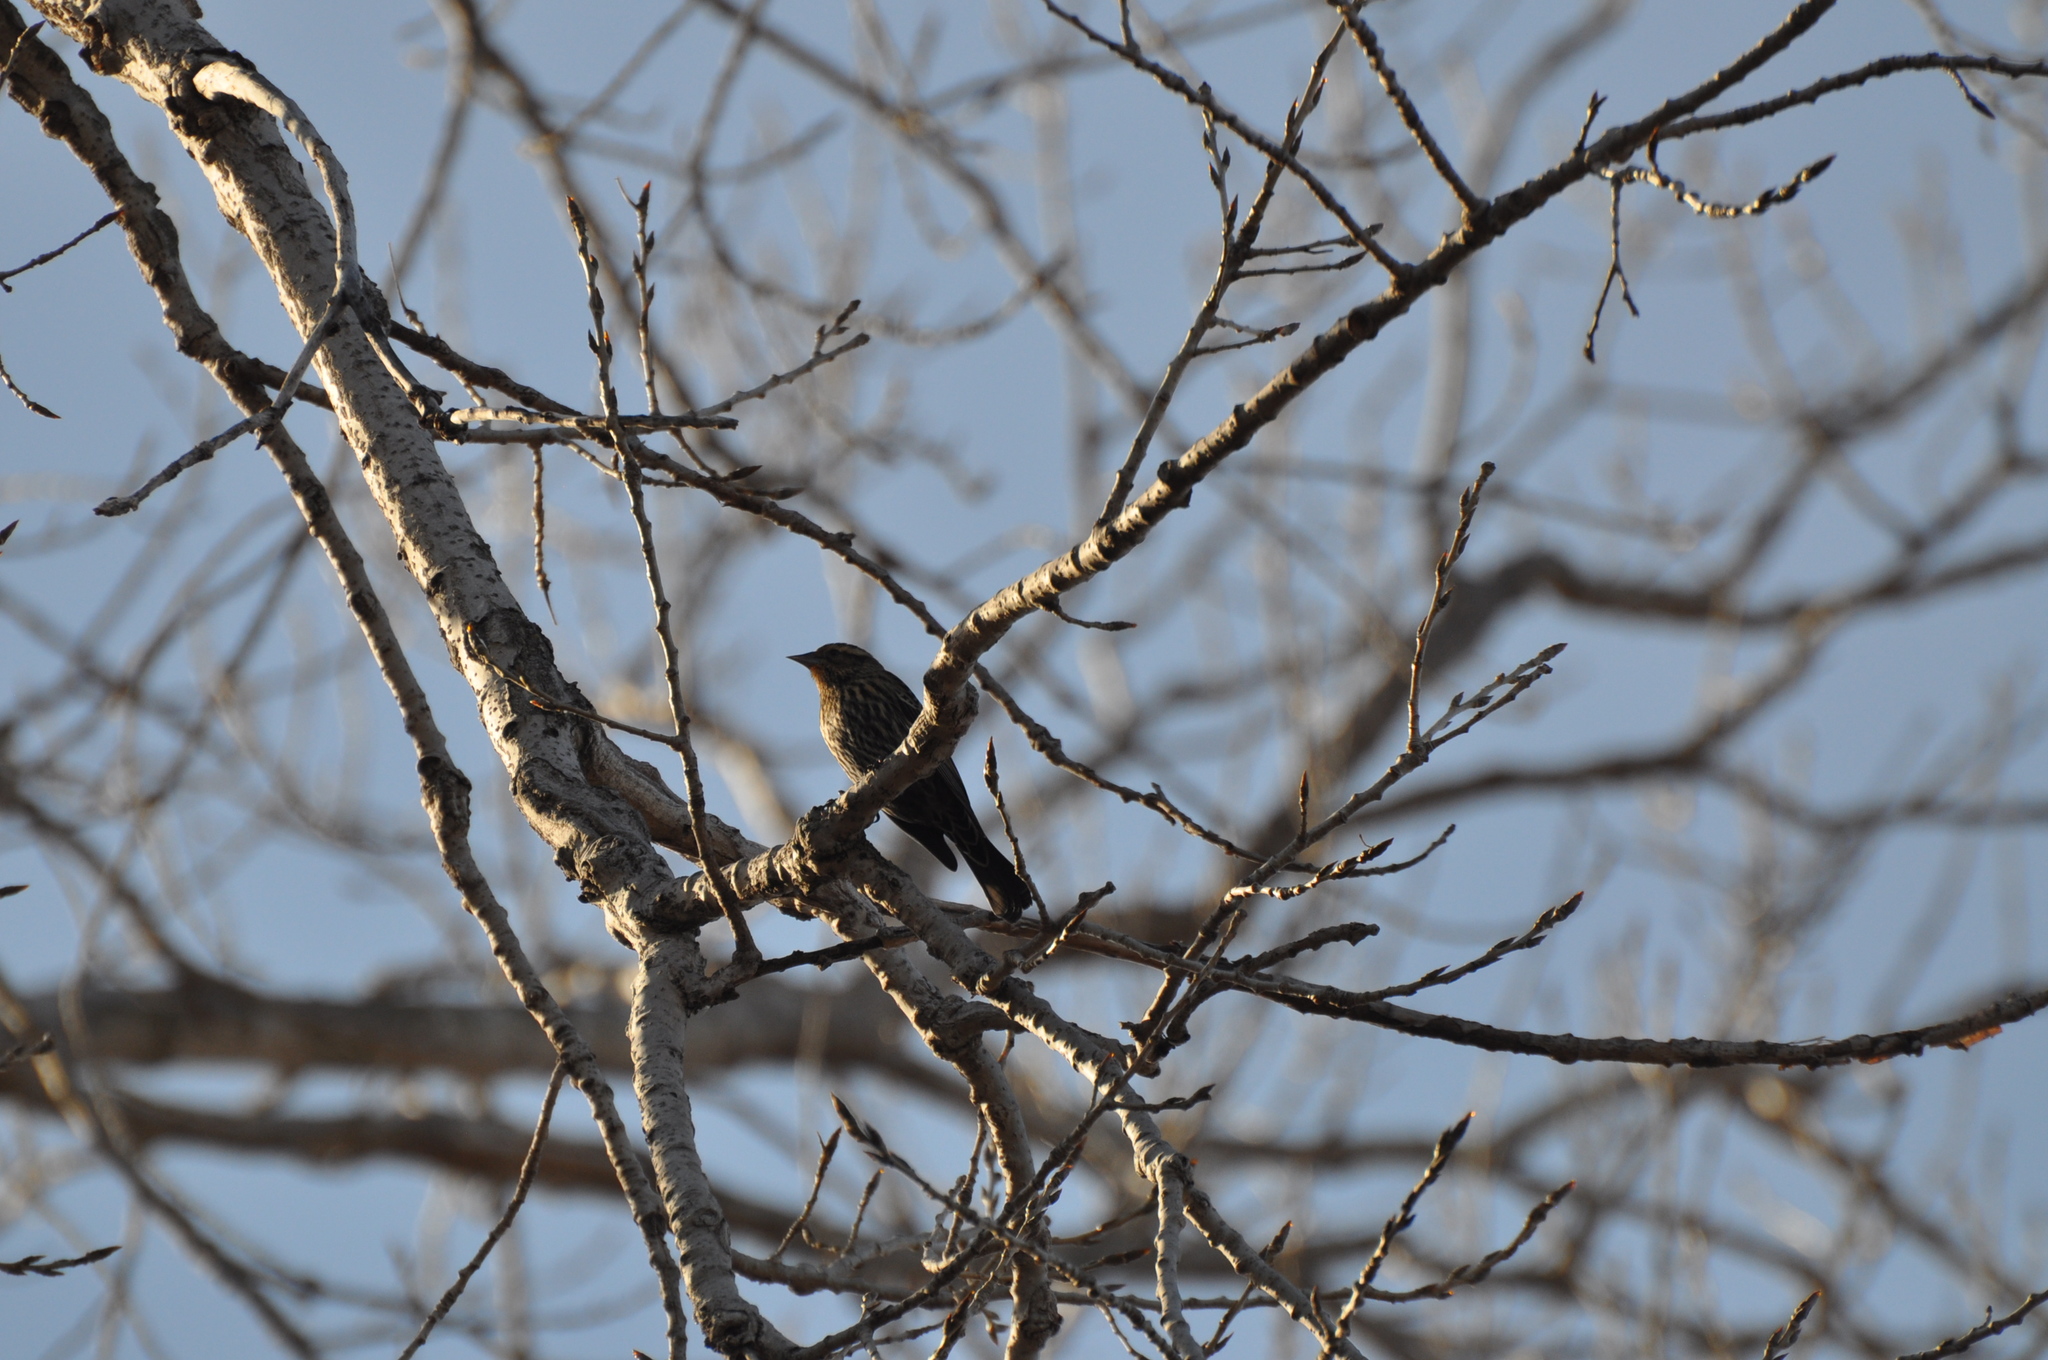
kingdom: Animalia
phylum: Chordata
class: Aves
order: Passeriformes
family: Icteridae
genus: Agelaius
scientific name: Agelaius phoeniceus
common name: Red-winged blackbird
